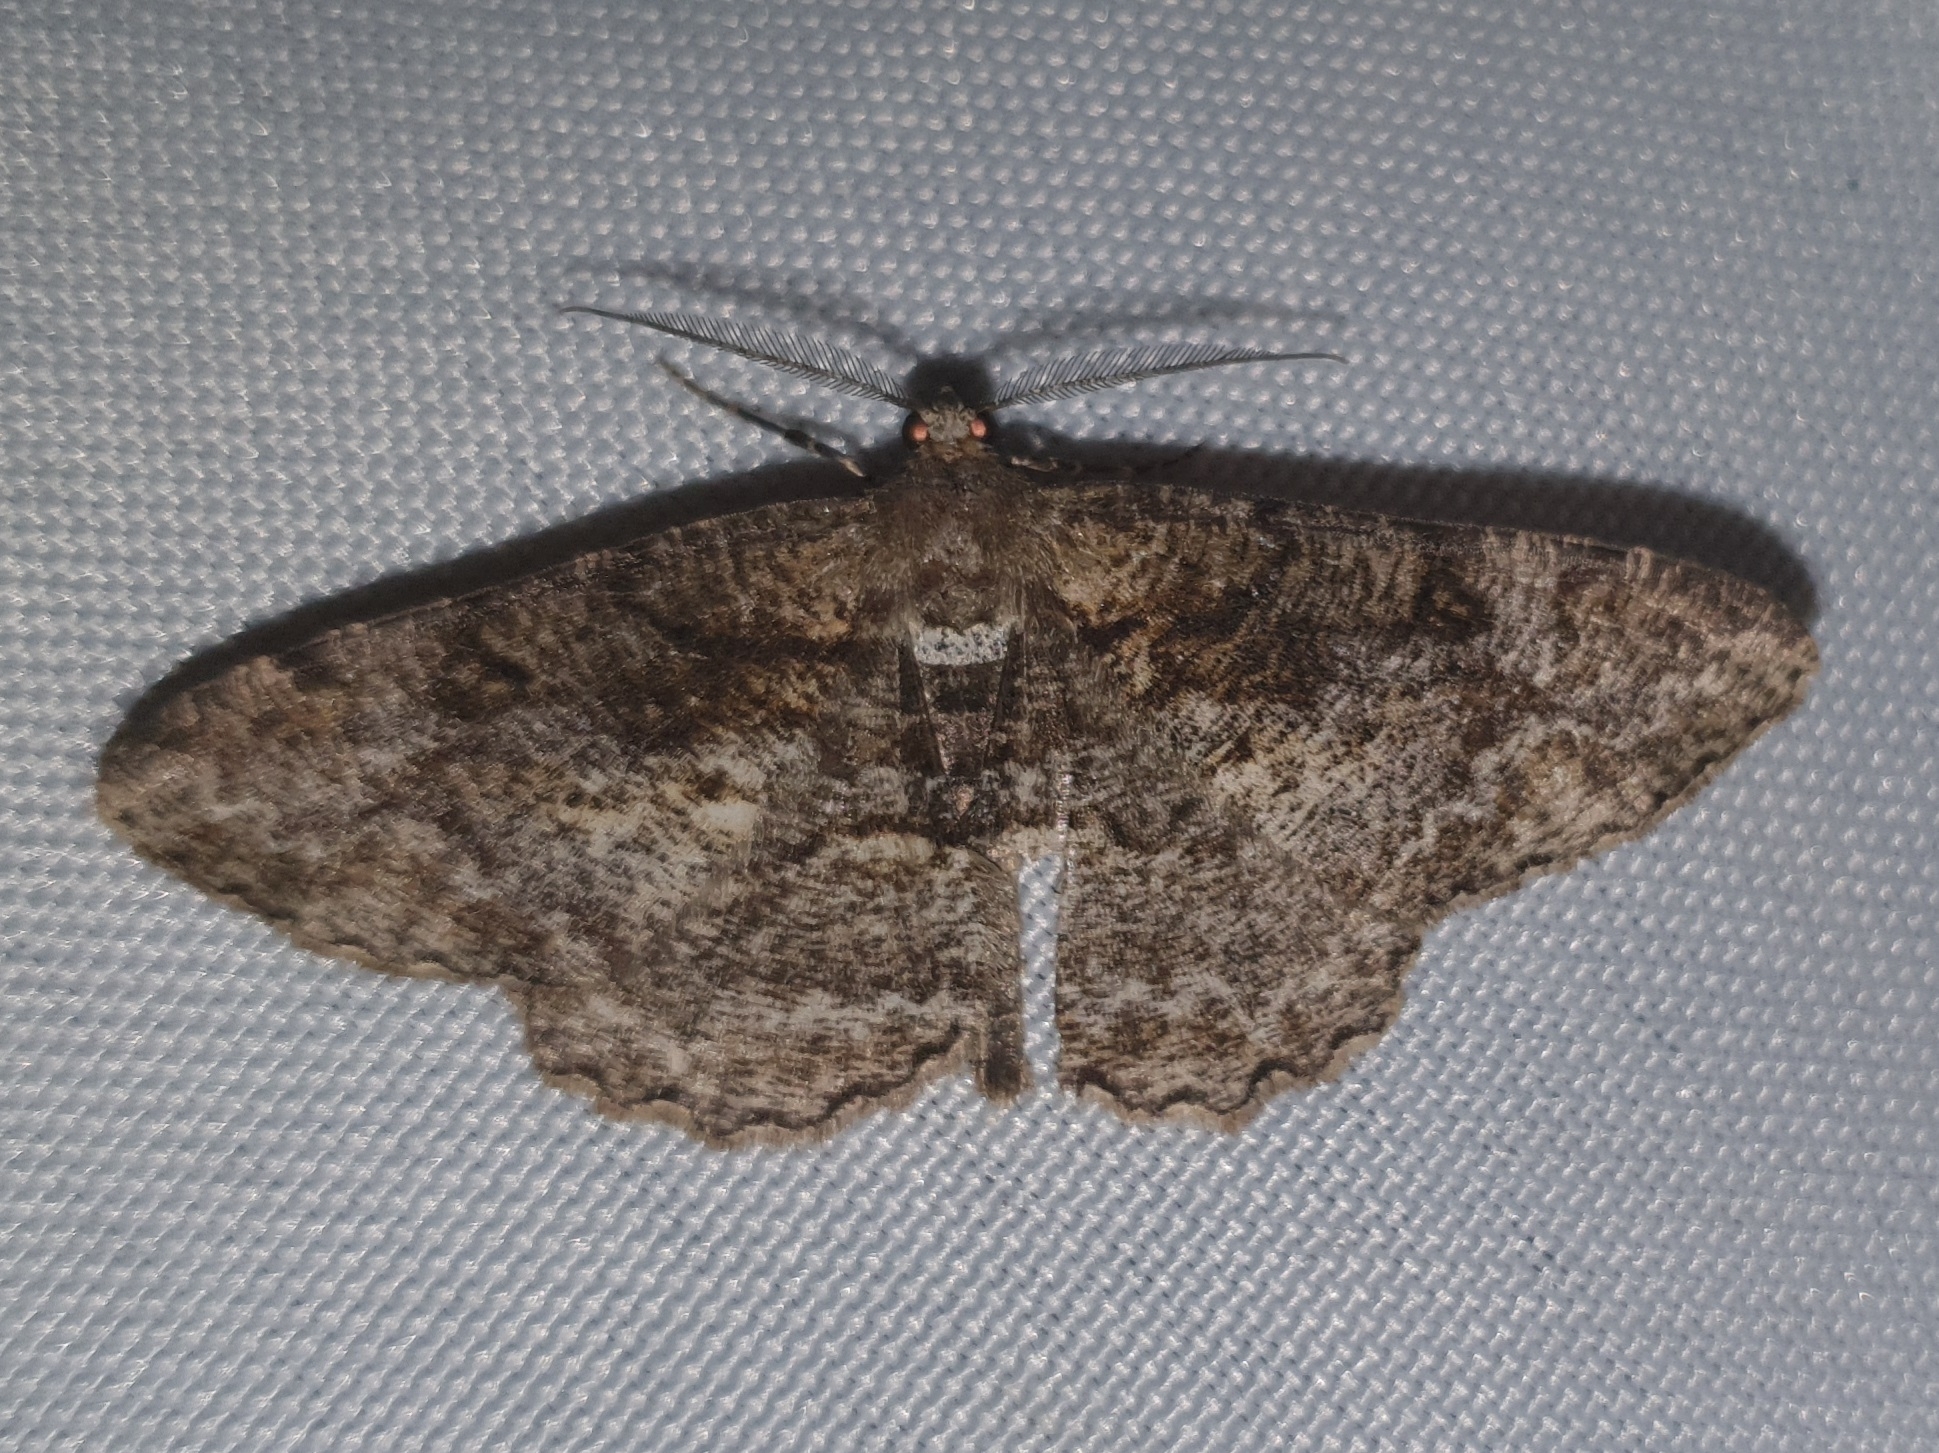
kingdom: Animalia
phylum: Arthropoda
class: Insecta
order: Lepidoptera
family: Geometridae
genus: Alcis
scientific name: Alcis repandata
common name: Mottled beauty
